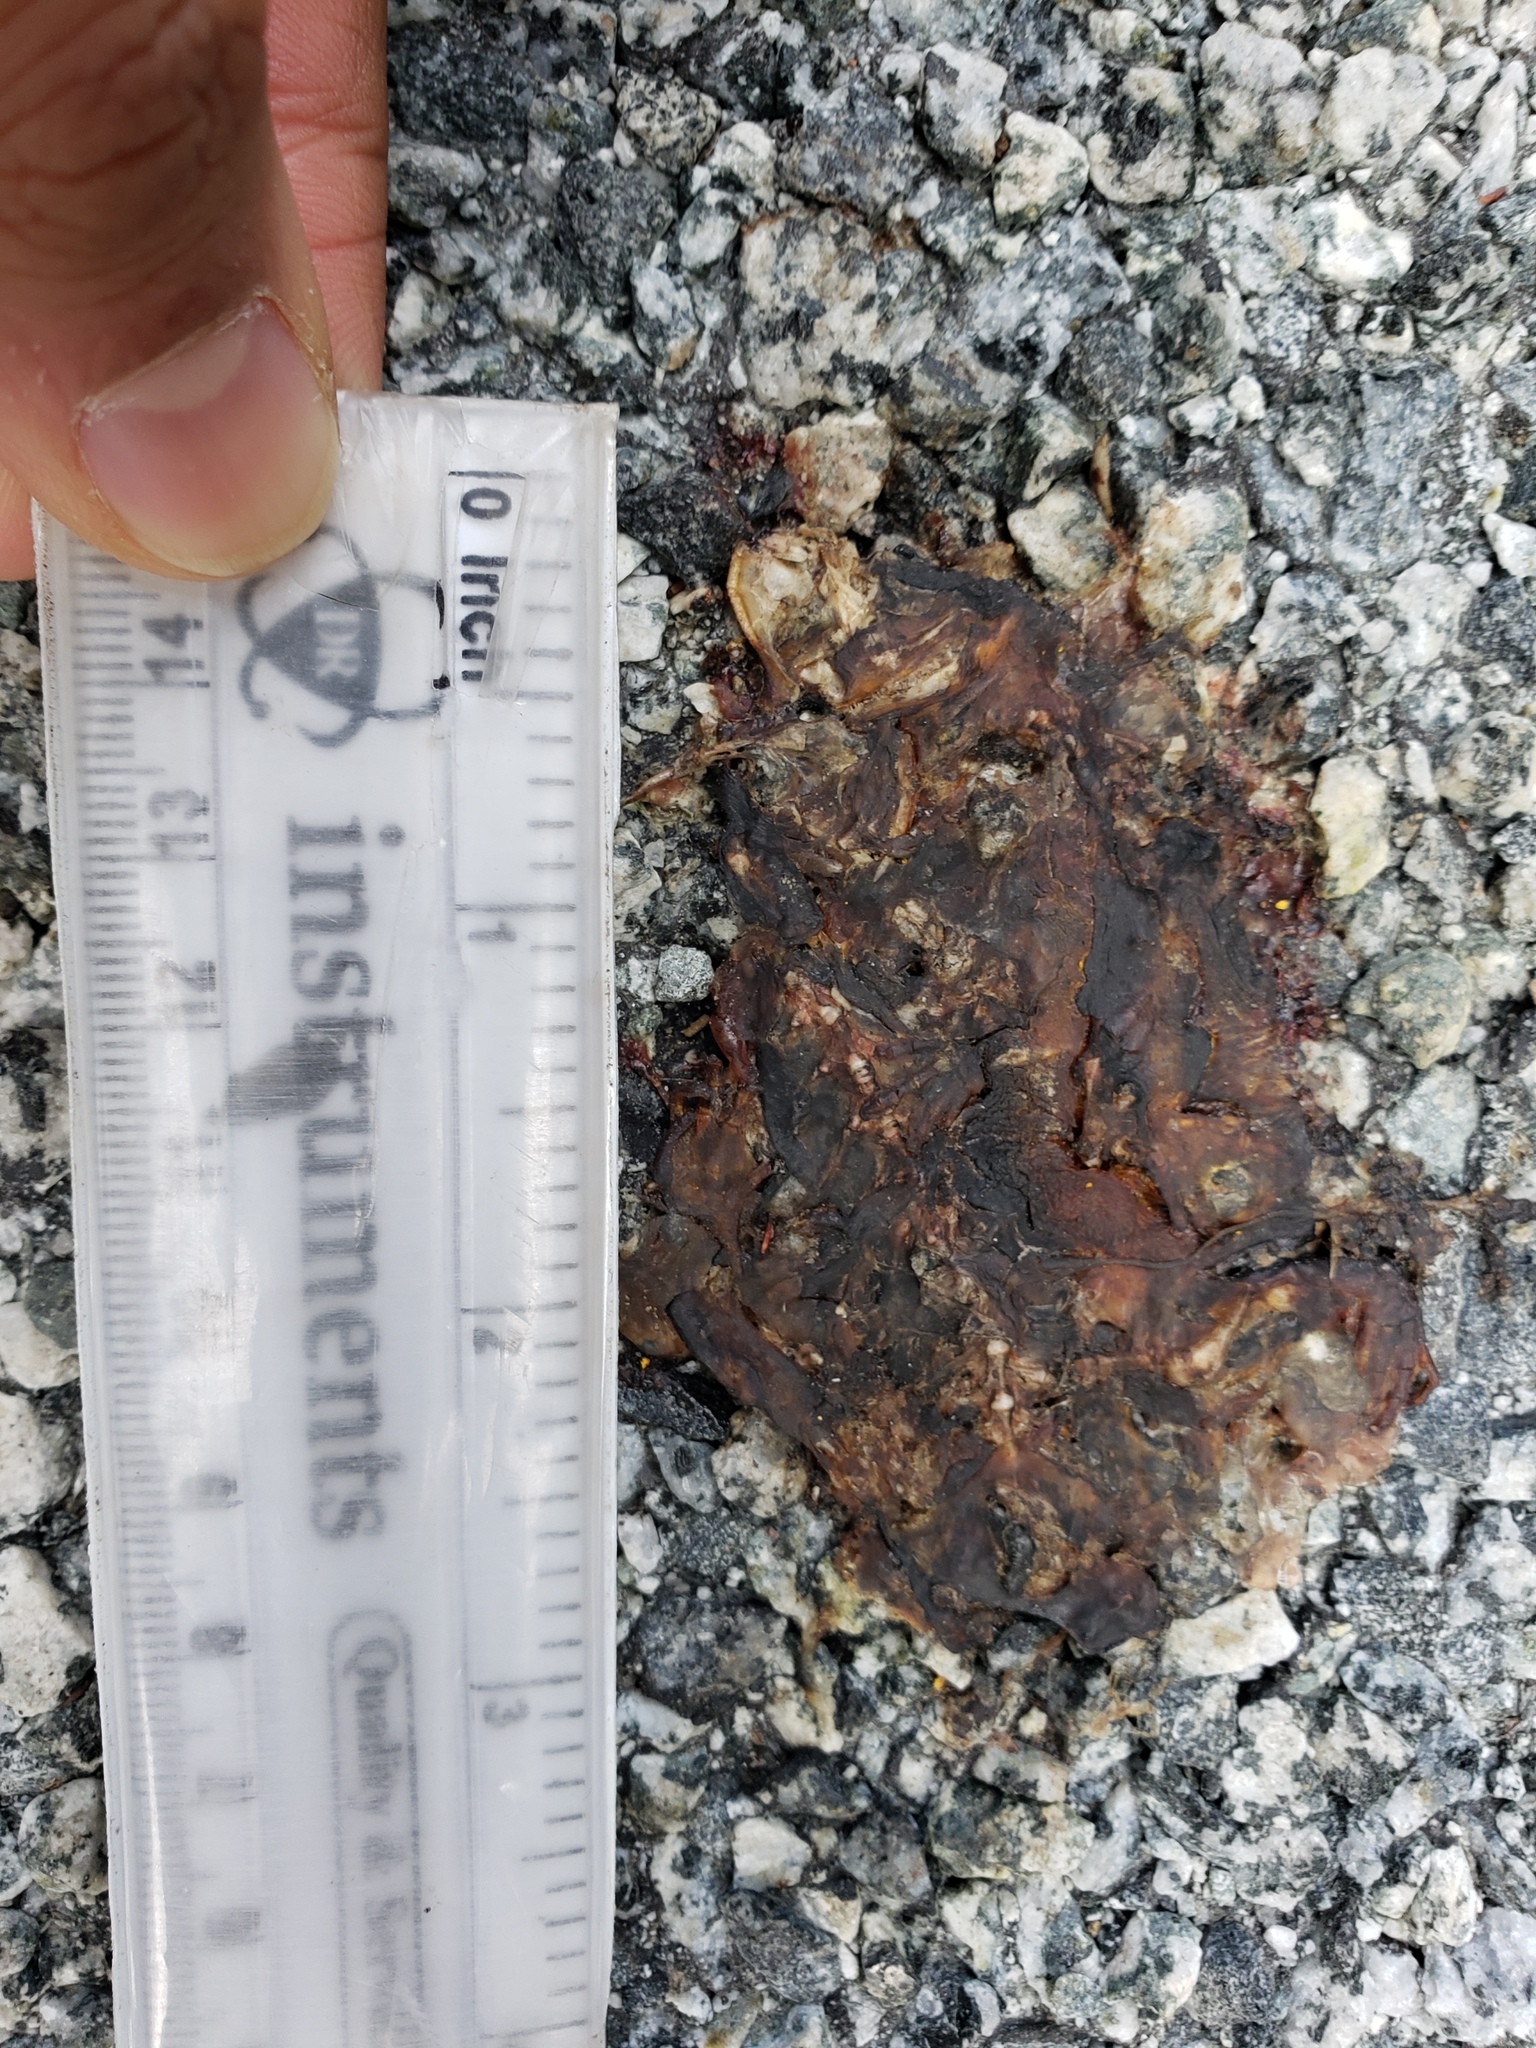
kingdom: Animalia
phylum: Chordata
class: Amphibia
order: Caudata
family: Salamandridae
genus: Taricha
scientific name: Taricha
